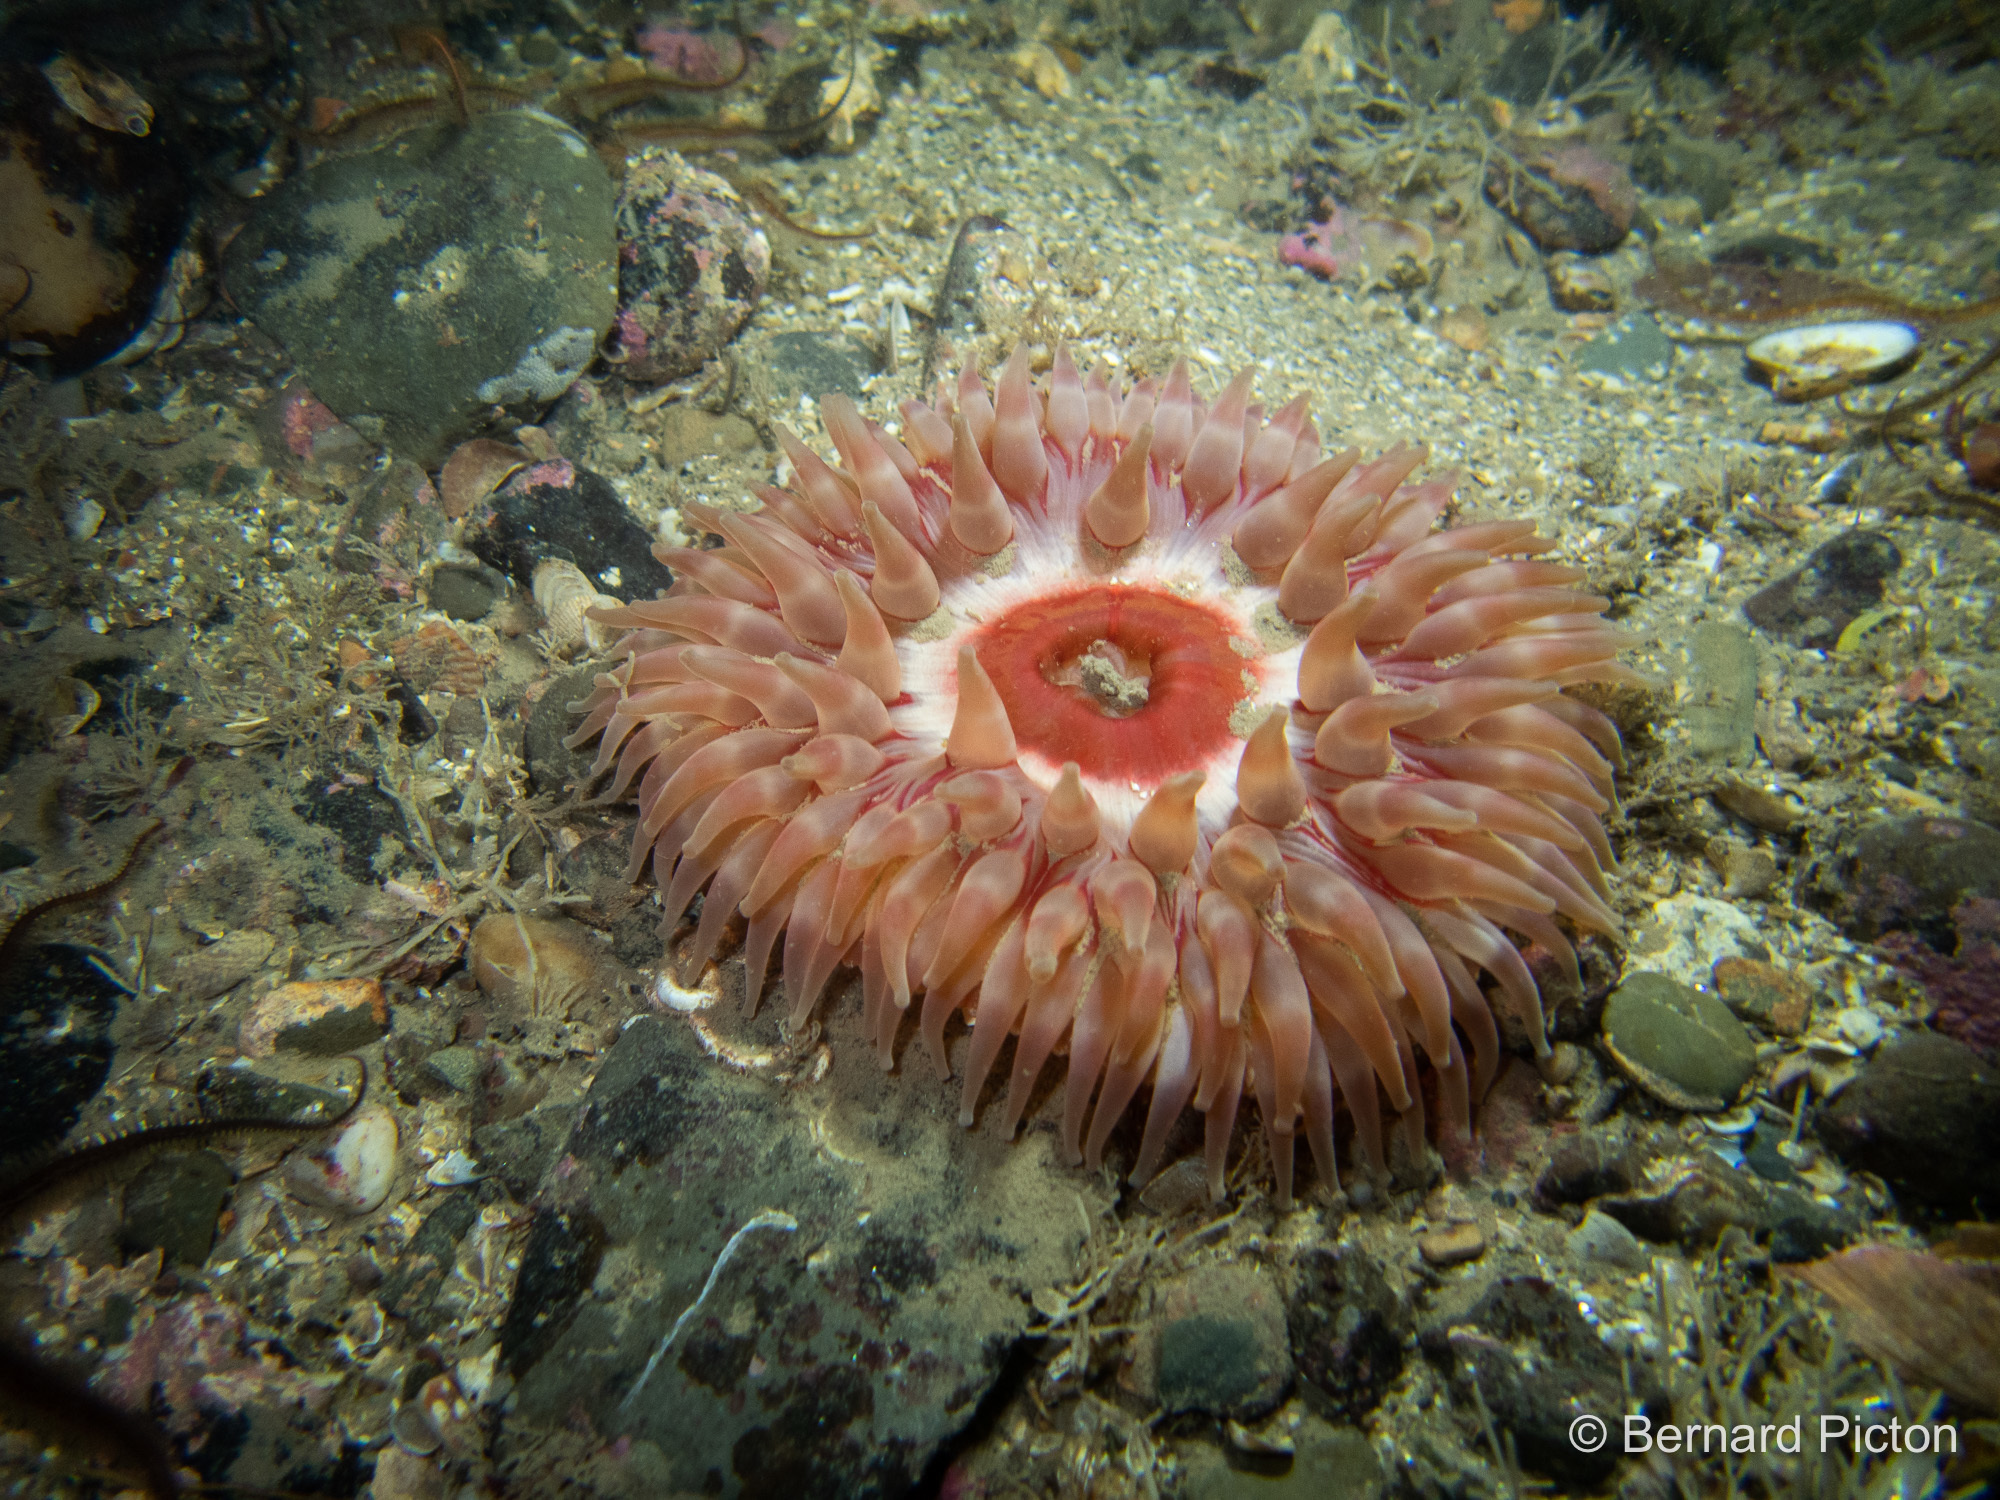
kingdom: Animalia
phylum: Cnidaria
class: Anthozoa
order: Actiniaria
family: Actiniidae
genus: Urticina
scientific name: Urticina eques
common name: Horseman anemone
